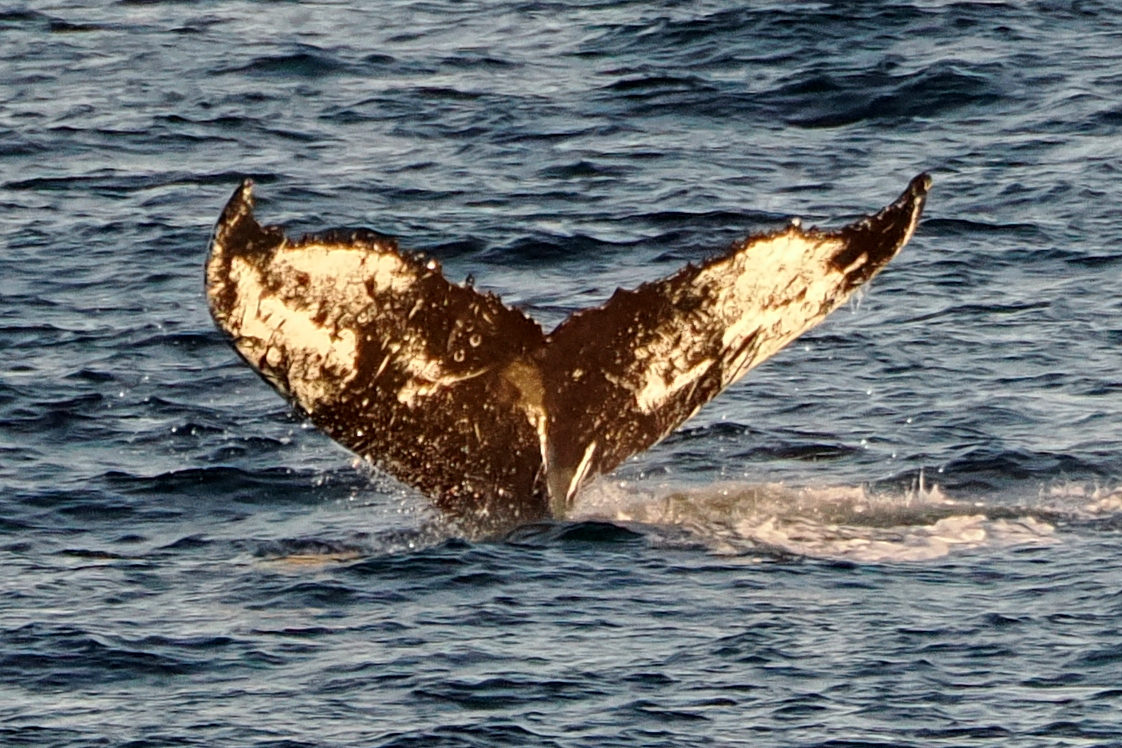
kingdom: Animalia
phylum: Chordata
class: Mammalia
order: Cetacea
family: Balaenopteridae
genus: Megaptera
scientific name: Megaptera novaeangliae
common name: Humpback whale
